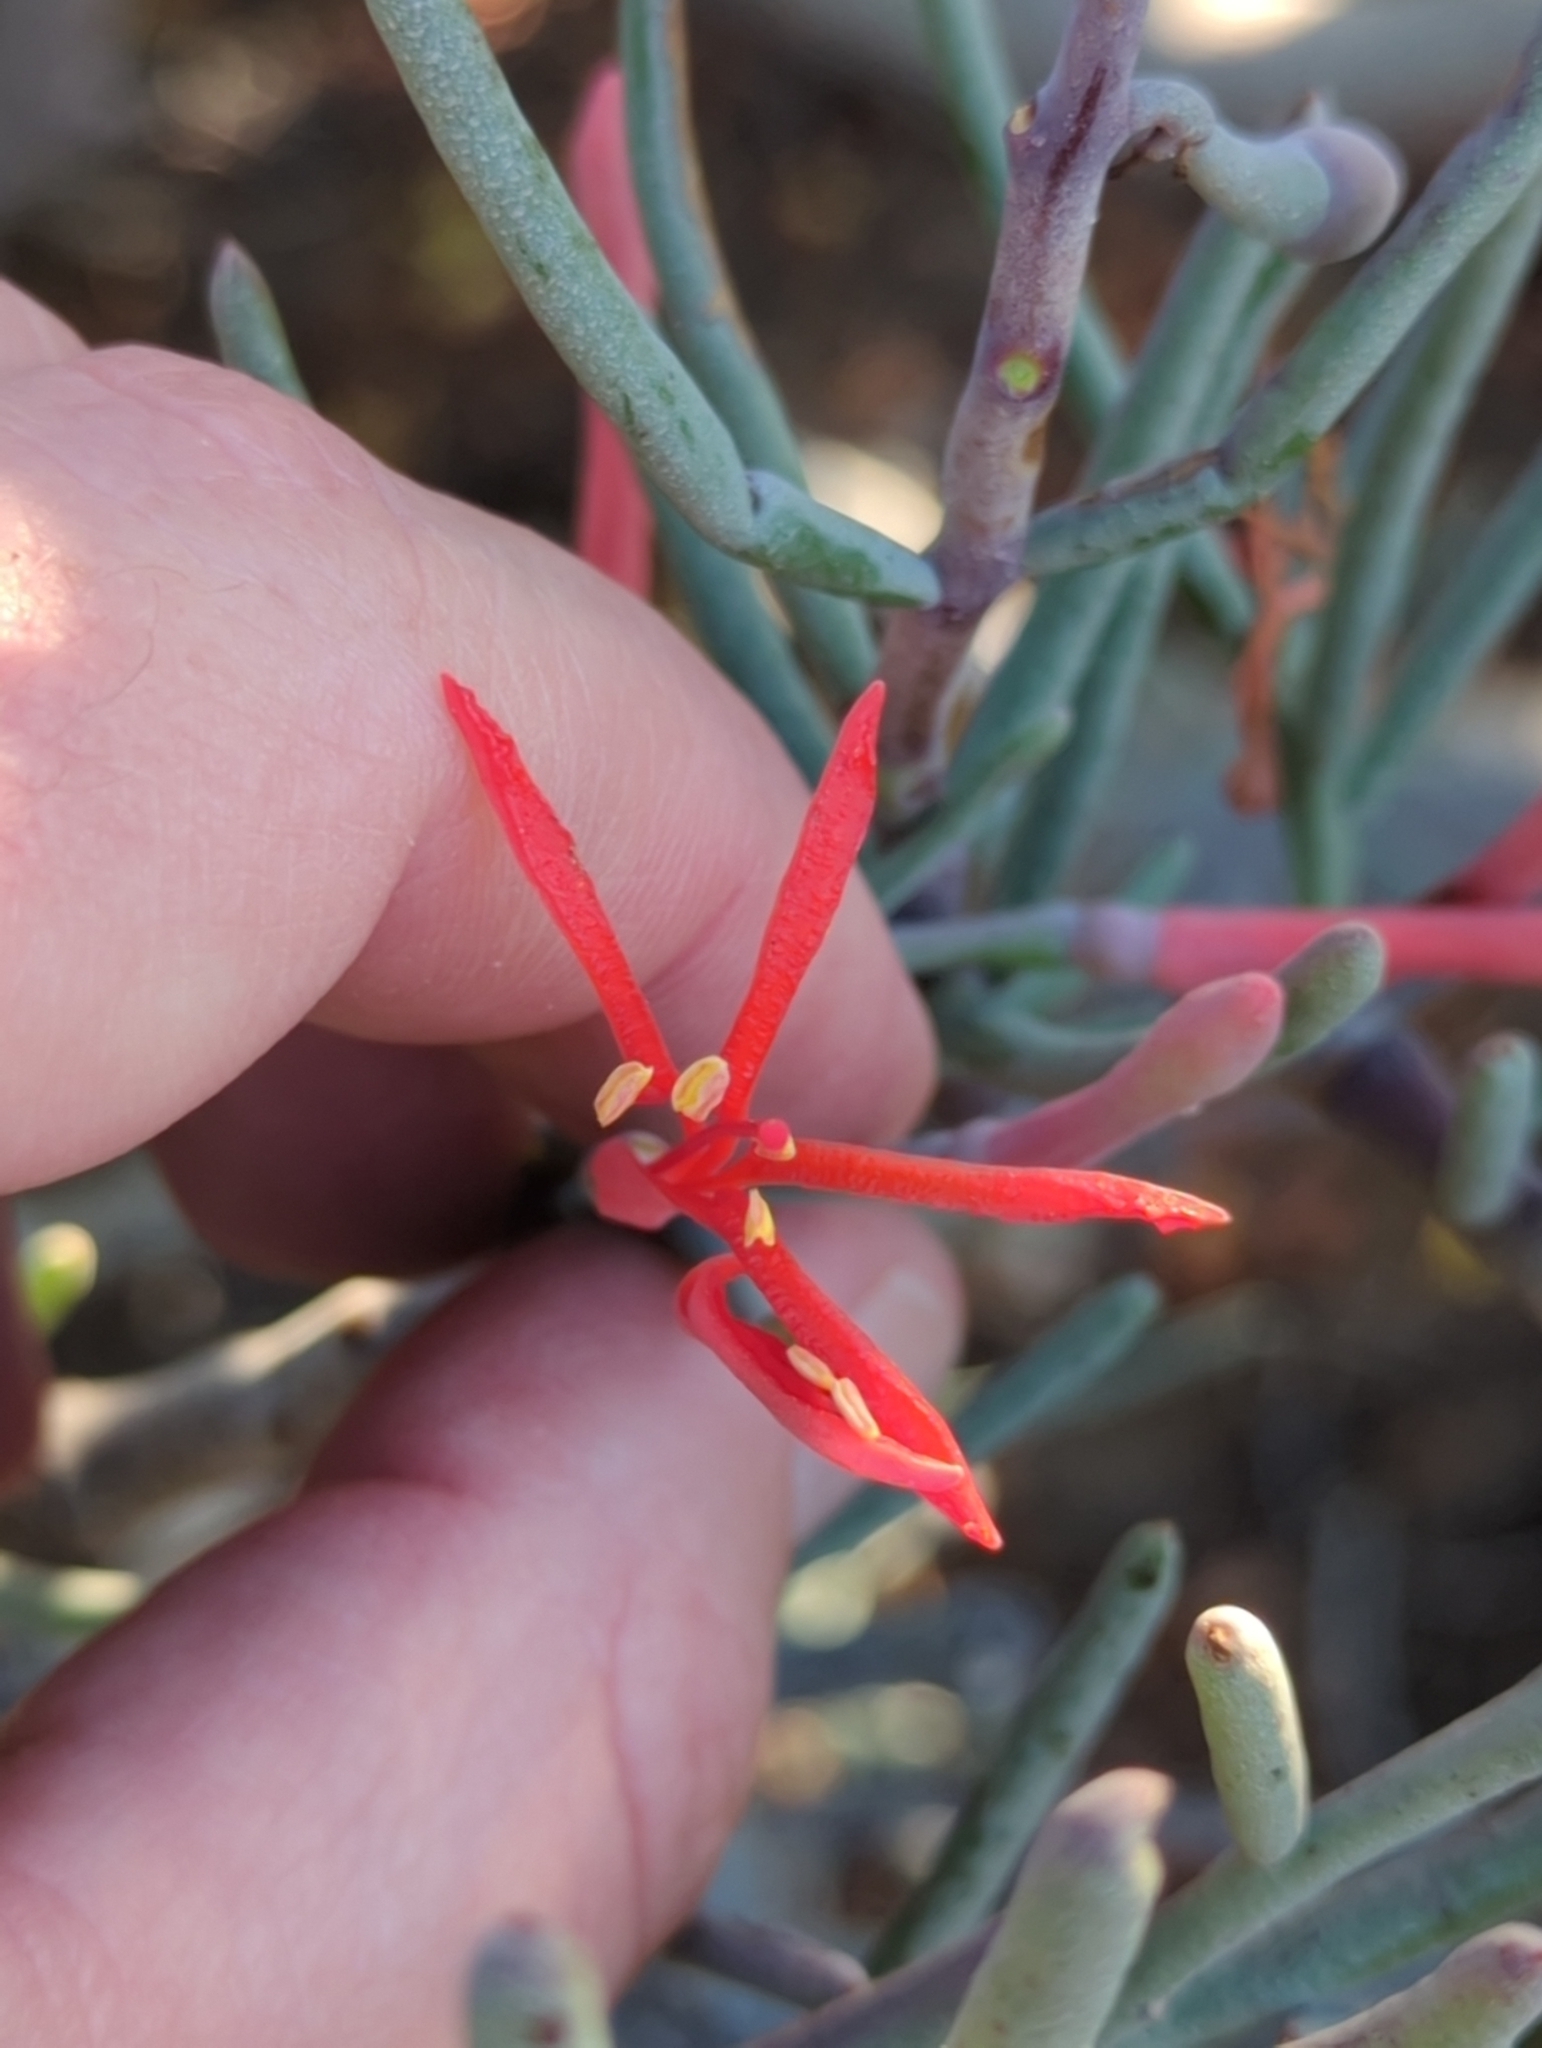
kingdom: Plantae
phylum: Tracheophyta
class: Magnoliopsida
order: Santalales
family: Loranthaceae
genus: Psittacanthus
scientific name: Psittacanthus sonorae
